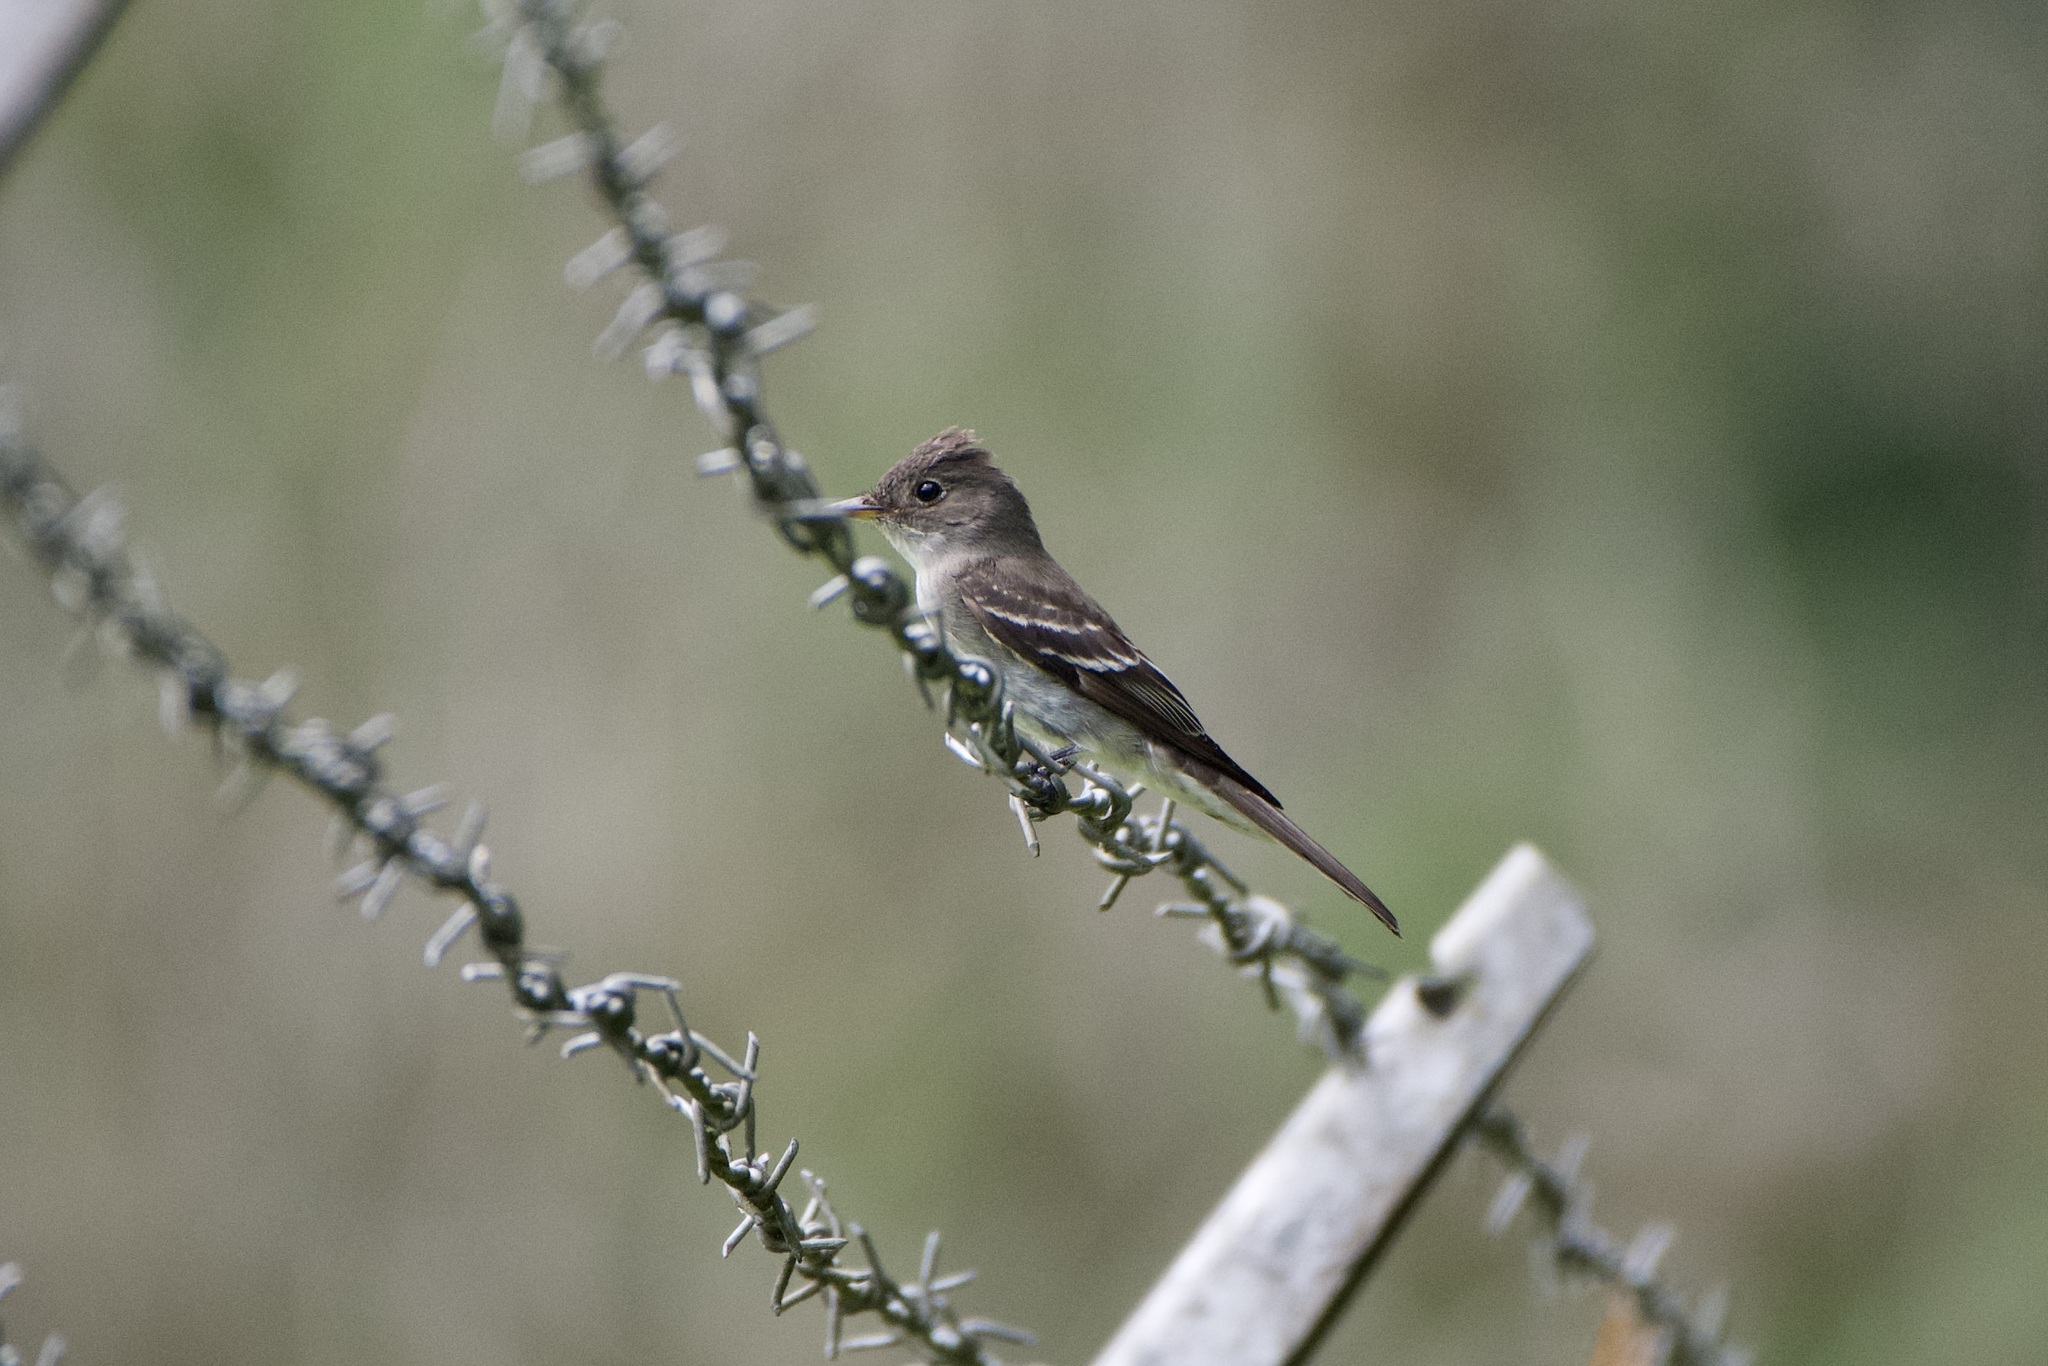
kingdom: Animalia
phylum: Chordata
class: Aves
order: Passeriformes
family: Tyrannidae
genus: Contopus
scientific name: Contopus
